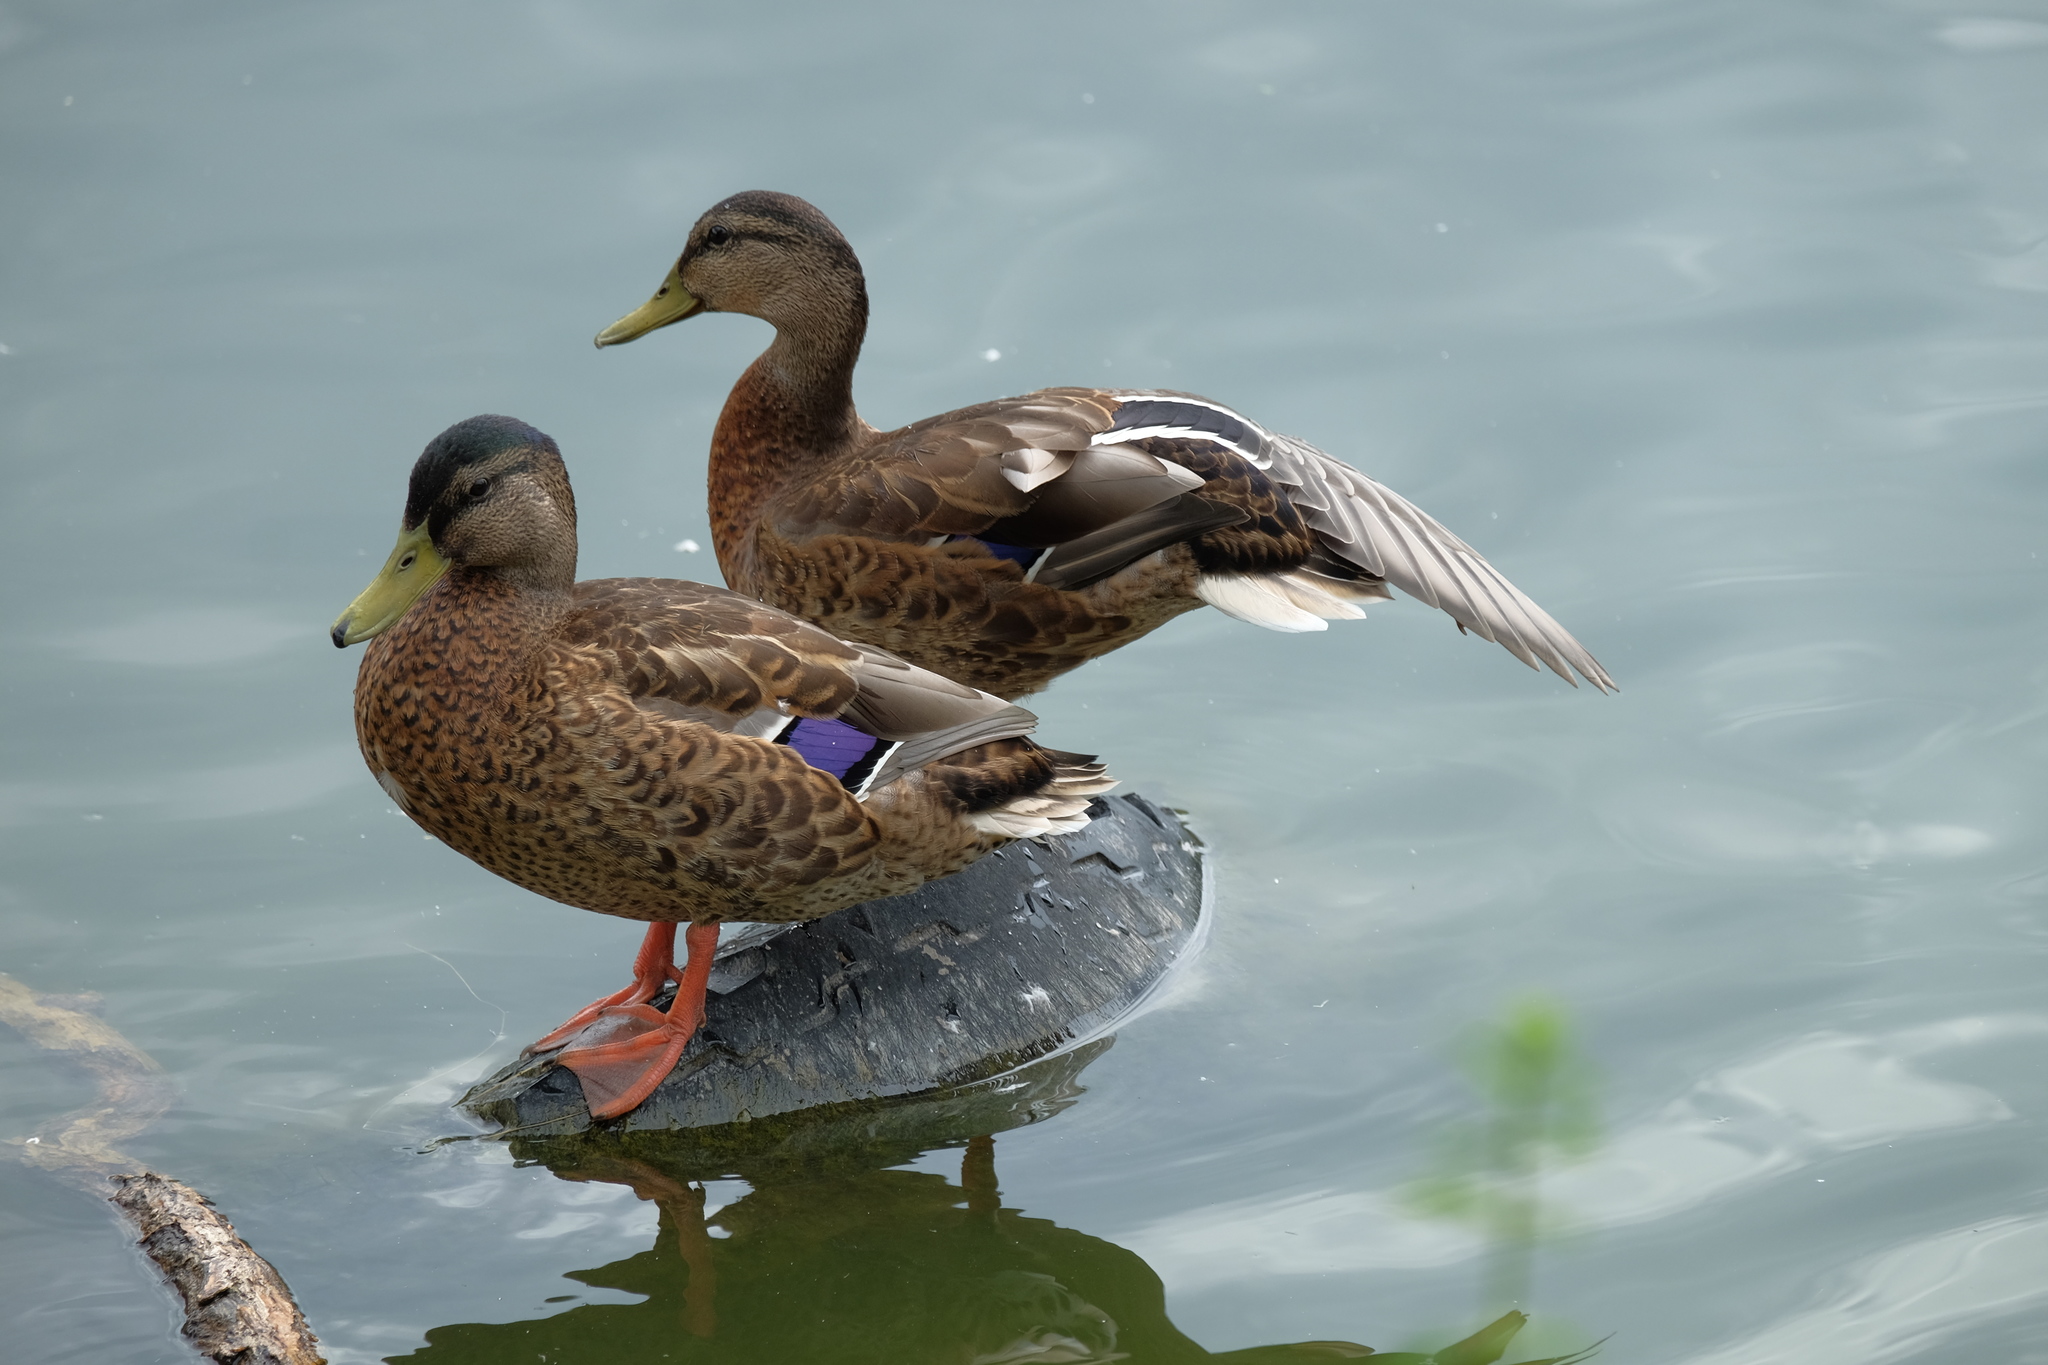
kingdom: Animalia
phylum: Chordata
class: Aves
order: Anseriformes
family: Anatidae
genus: Anas
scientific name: Anas platyrhynchos
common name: Mallard
